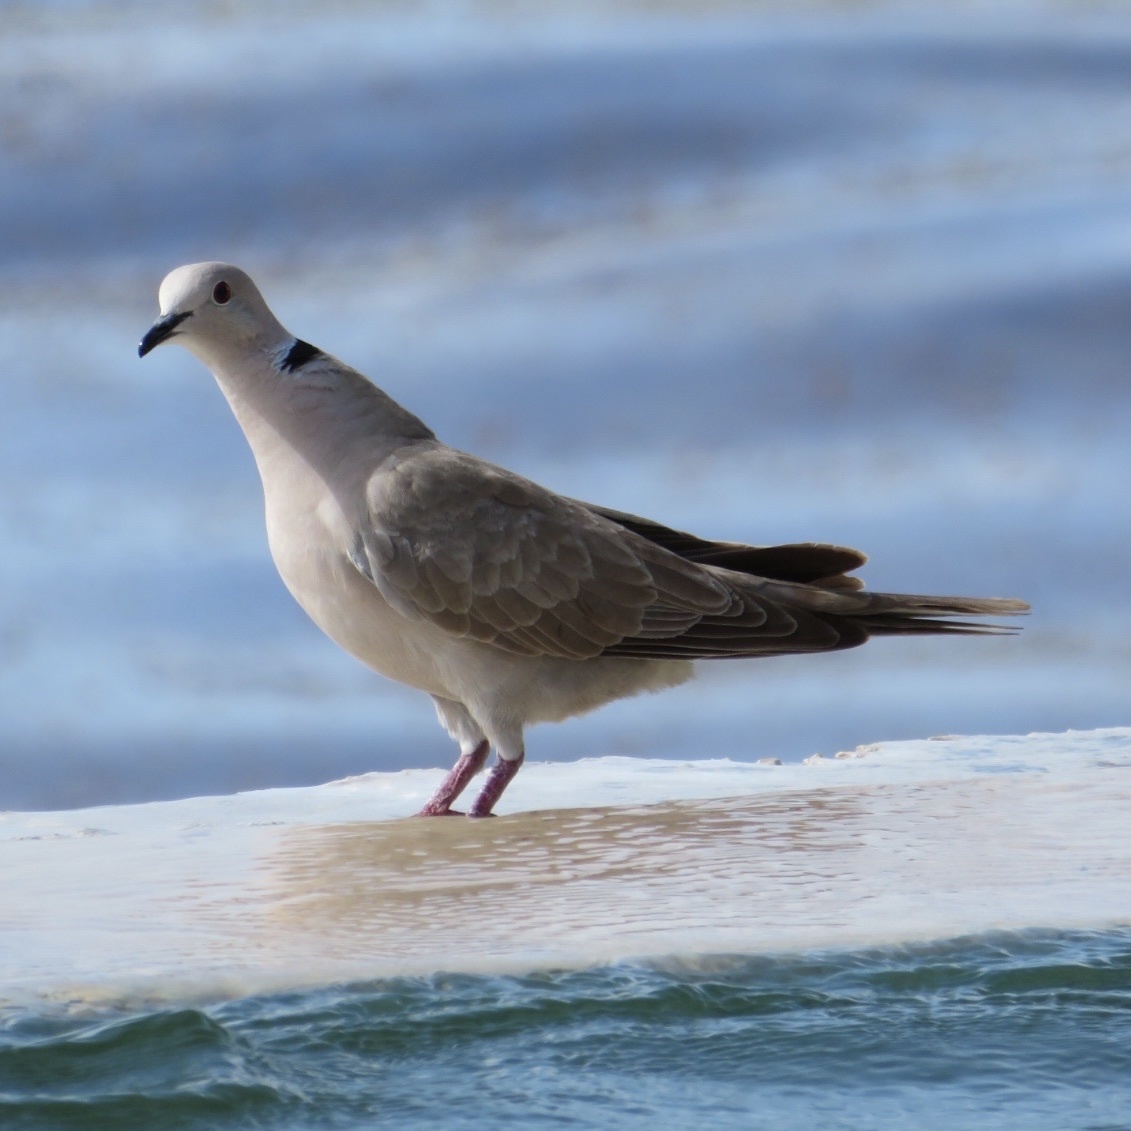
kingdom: Animalia
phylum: Chordata
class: Aves
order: Columbiformes
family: Columbidae
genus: Streptopelia
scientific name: Streptopelia decaocto
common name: Eurasian collared dove
